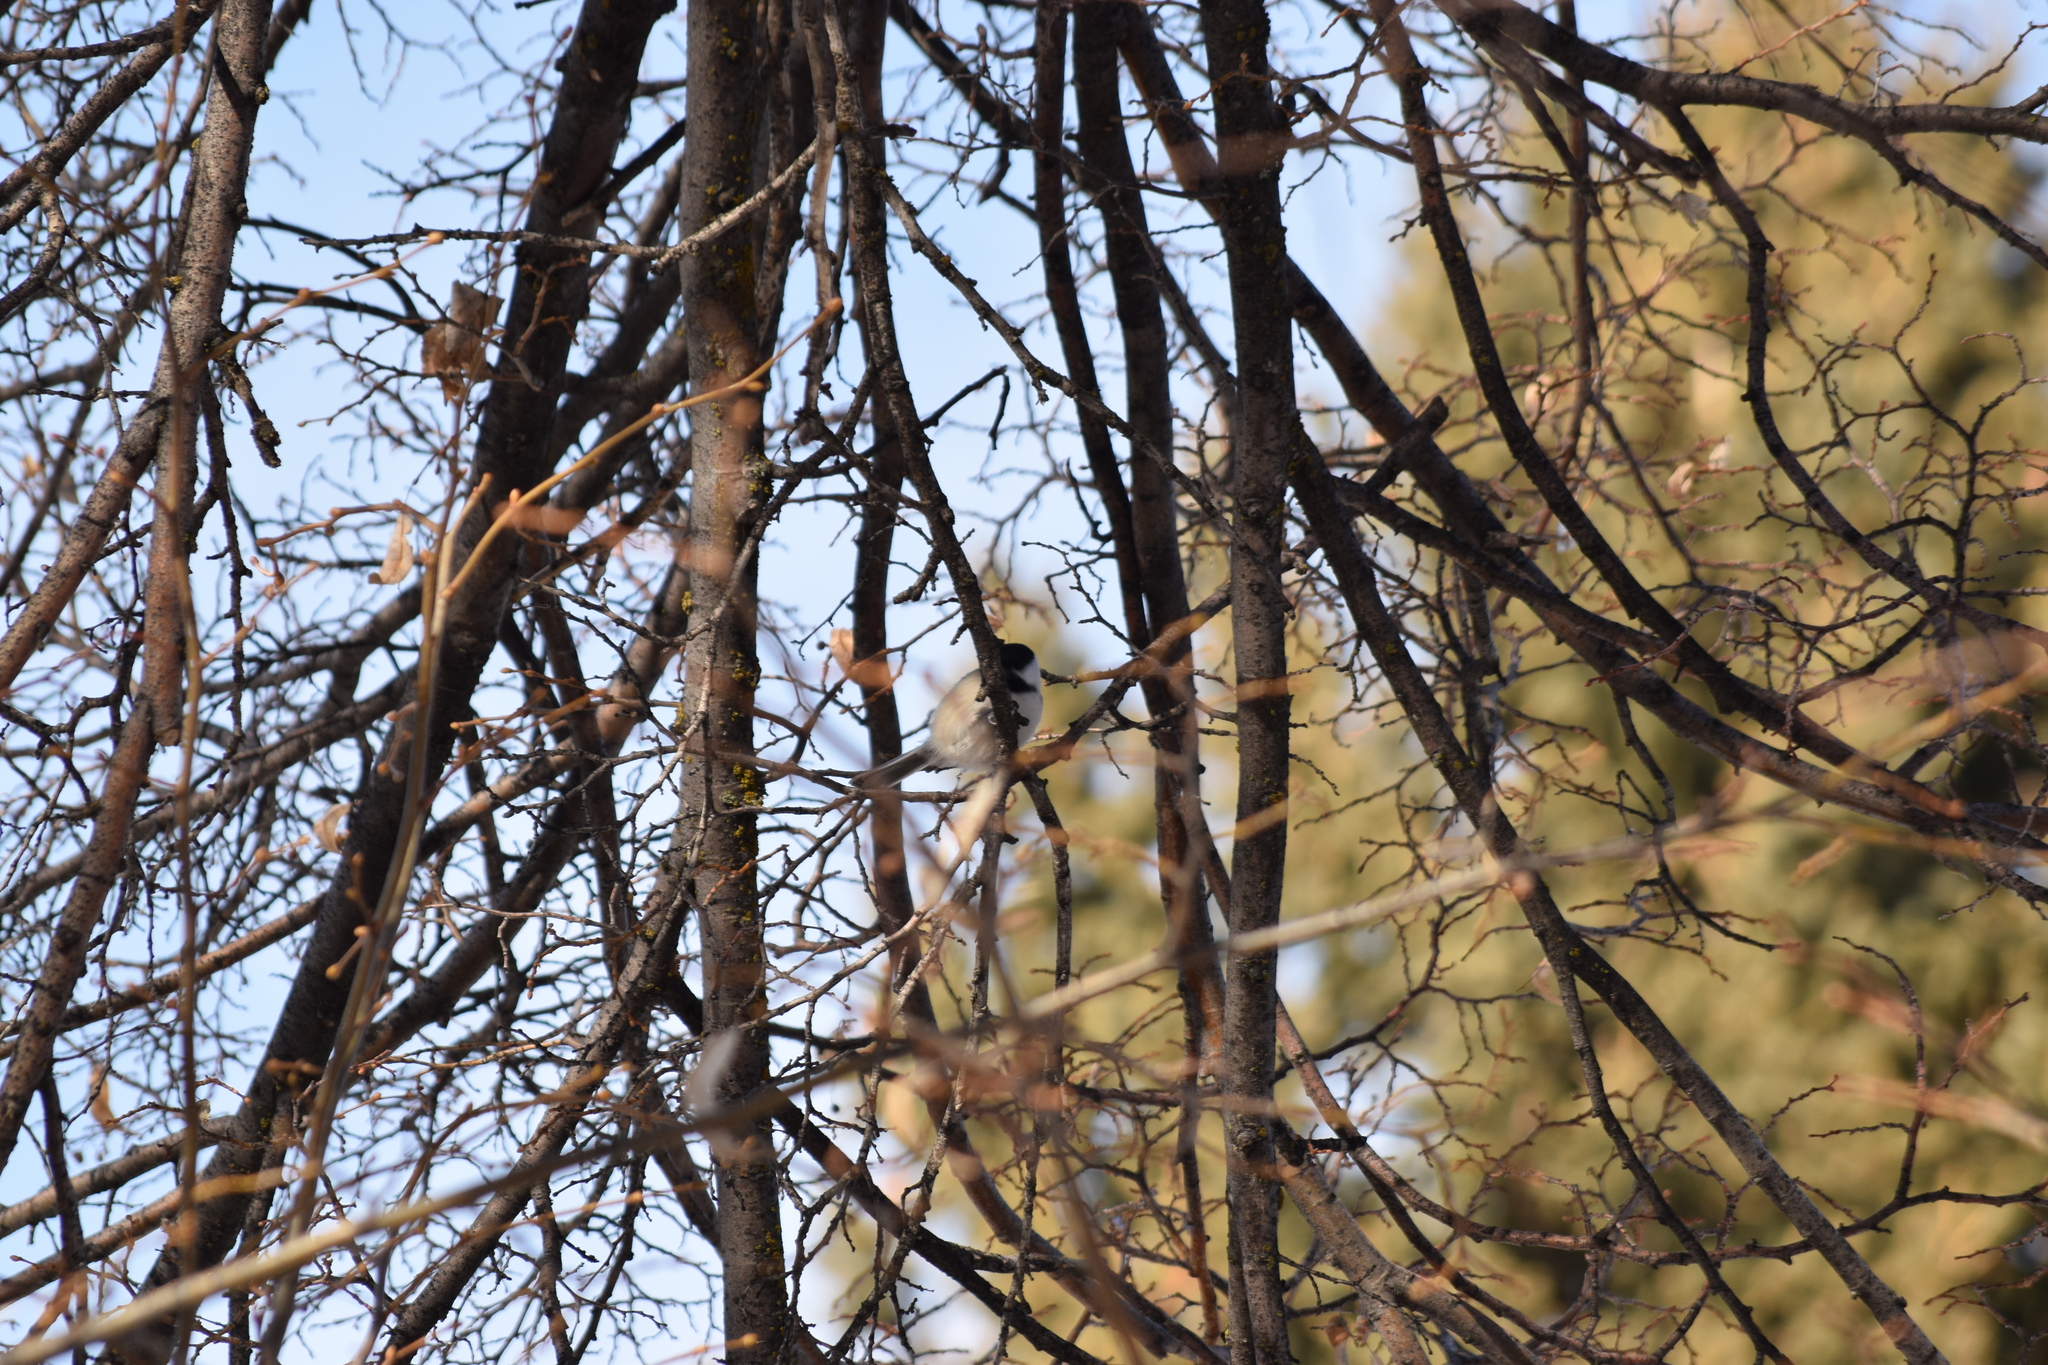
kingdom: Animalia
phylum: Chordata
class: Aves
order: Passeriformes
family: Paridae
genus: Poecile
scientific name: Poecile atricapillus
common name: Black-capped chickadee
